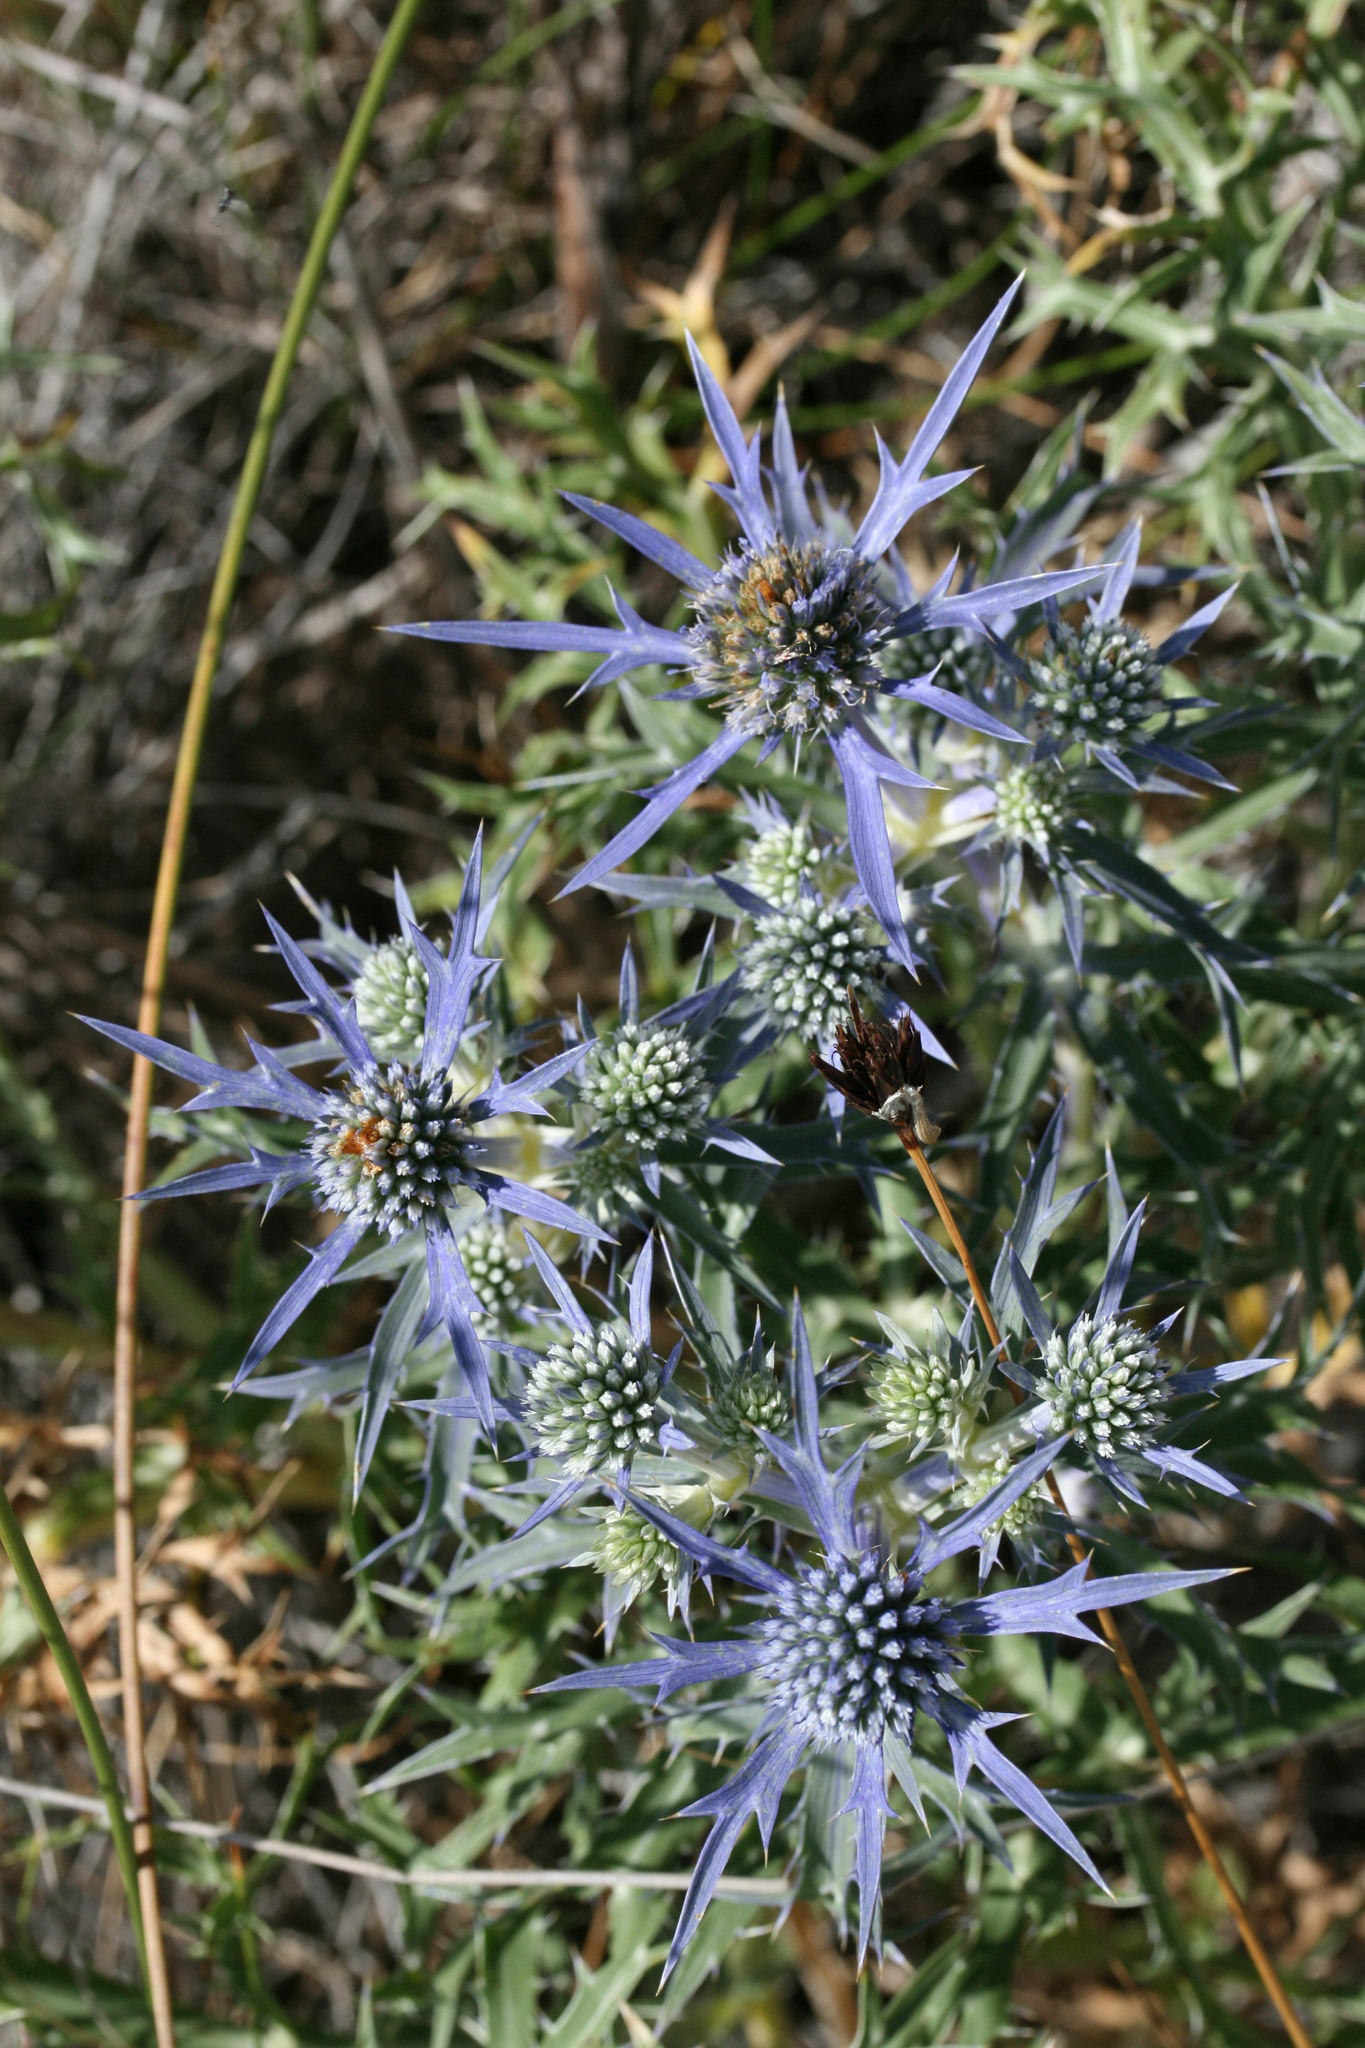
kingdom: Plantae
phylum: Tracheophyta
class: Magnoliopsida
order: Apiales
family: Apiaceae
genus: Eryngium
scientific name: Eryngium amethystinum
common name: Amethyst eryngo
